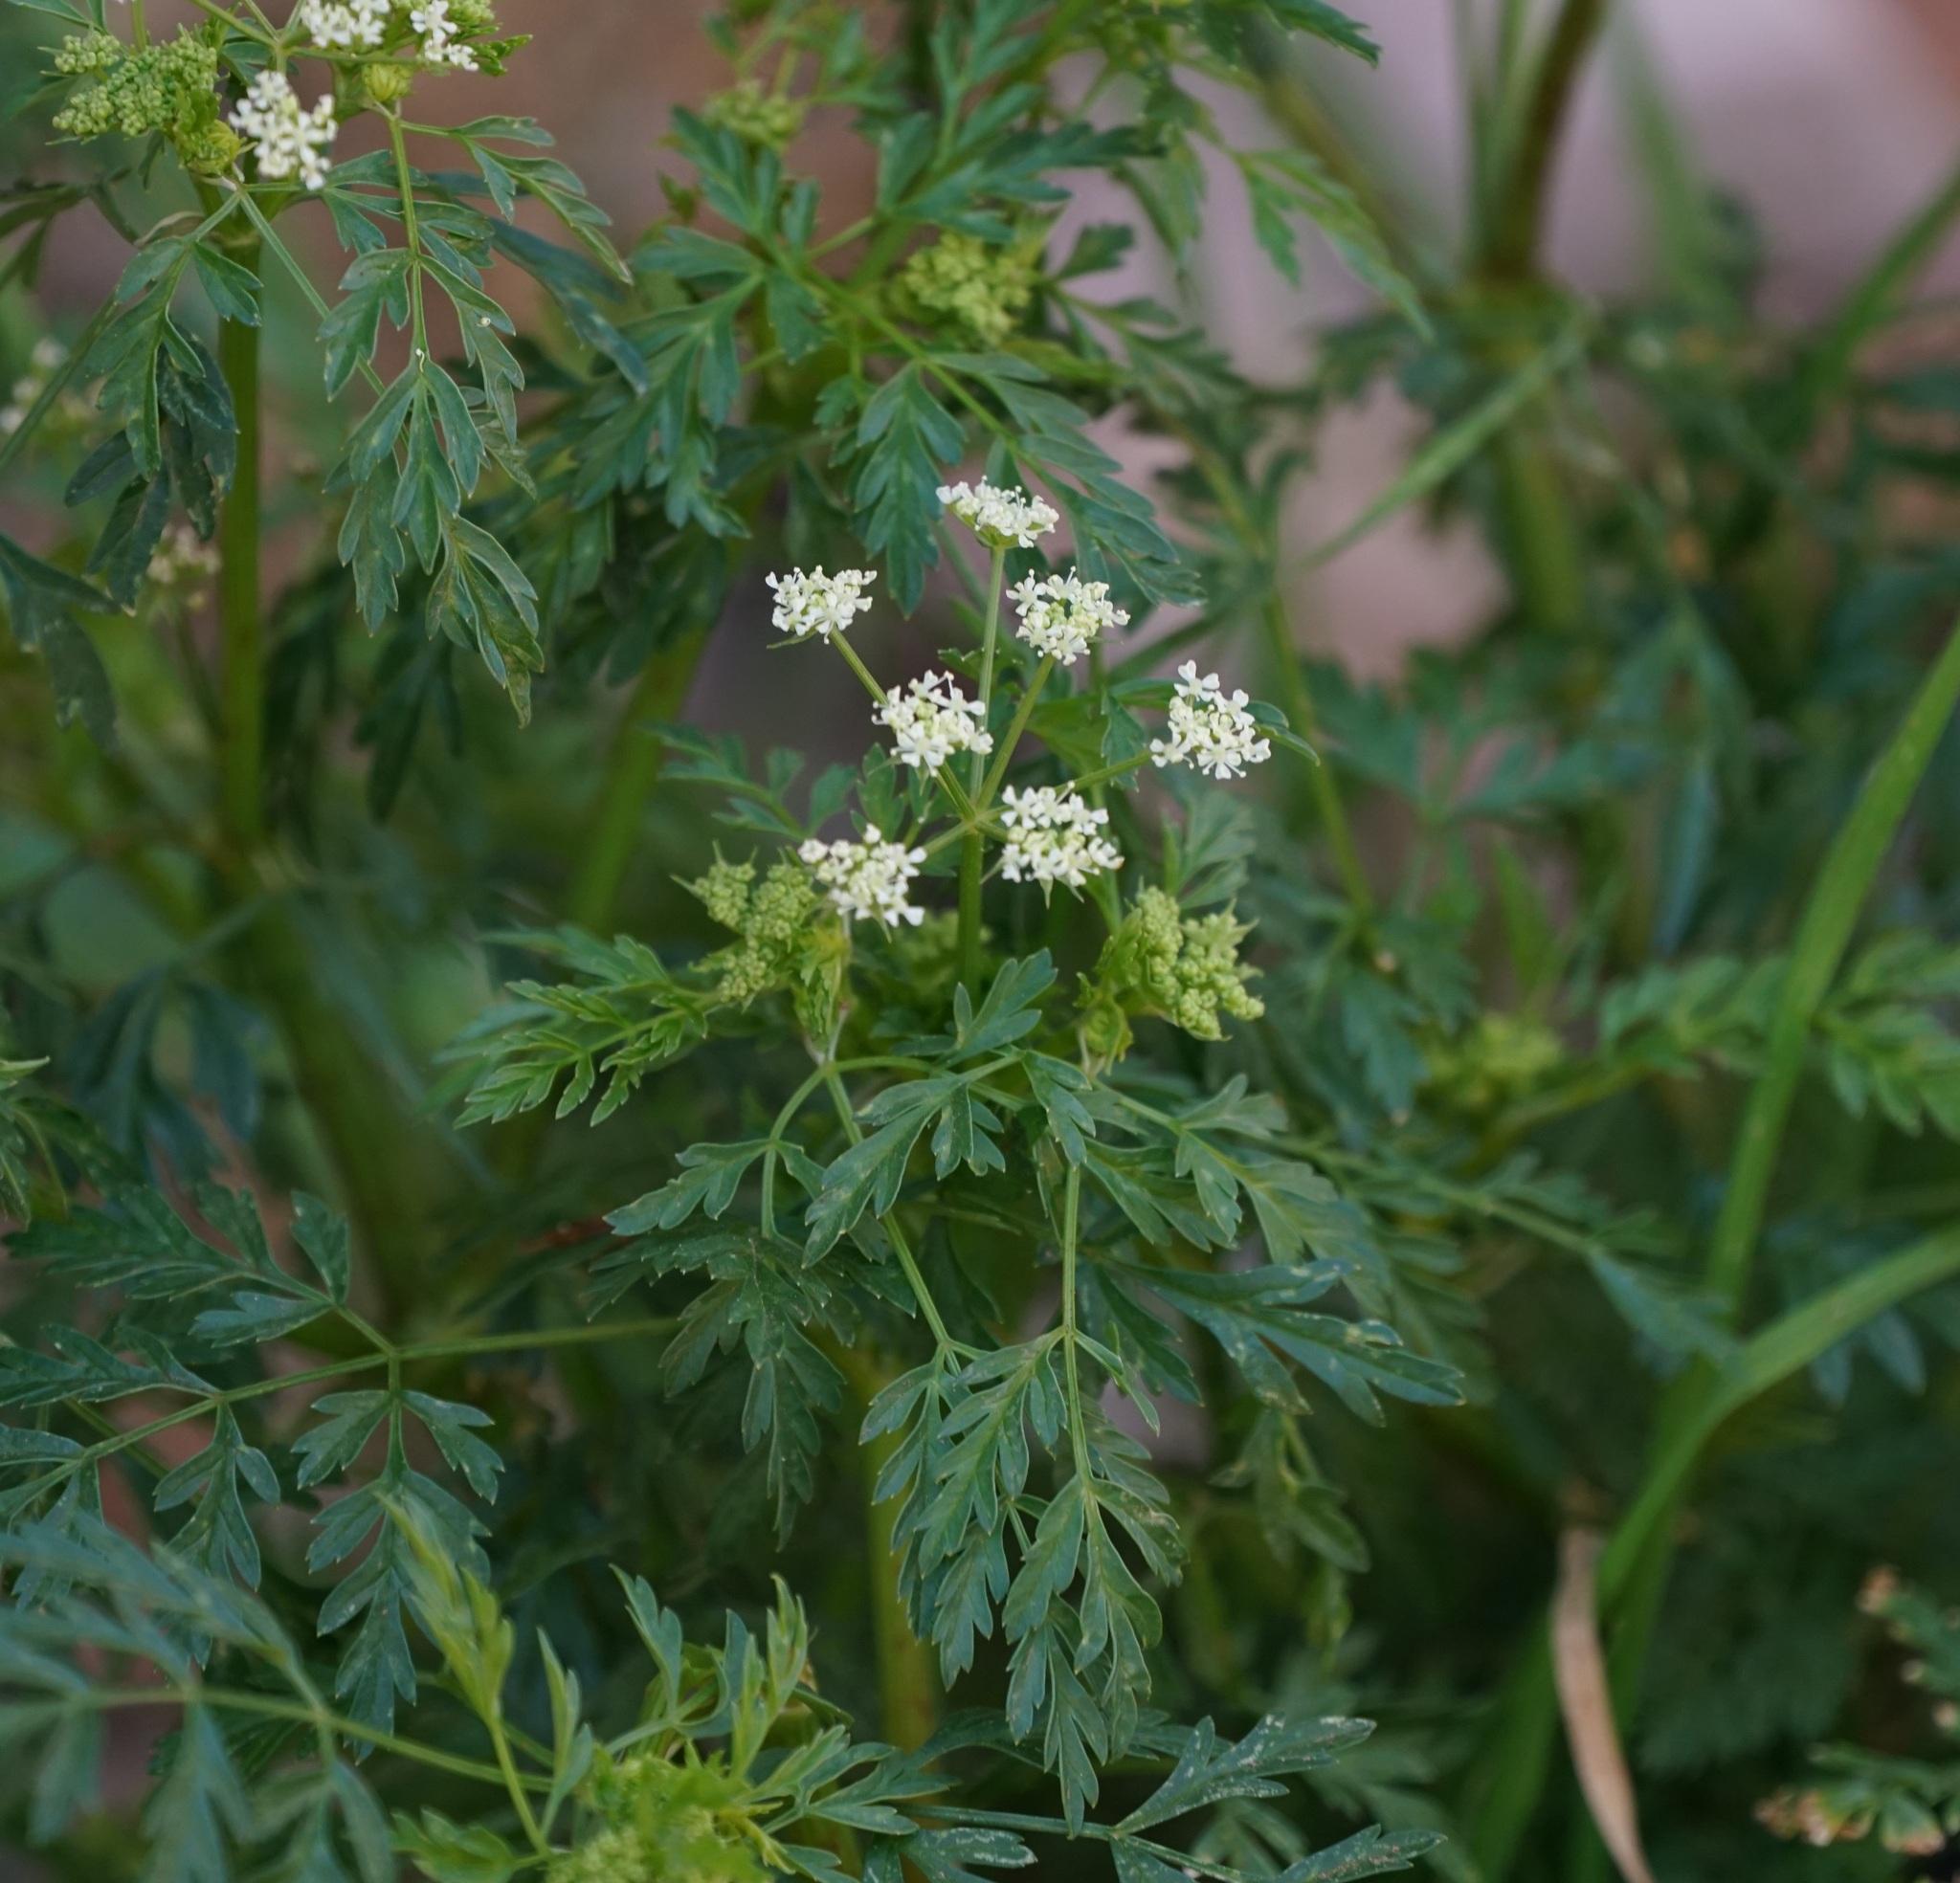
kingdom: Plantae
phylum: Tracheophyta
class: Magnoliopsida
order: Apiales
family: Apiaceae
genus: Conium
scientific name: Conium maculatum
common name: Hemlock
